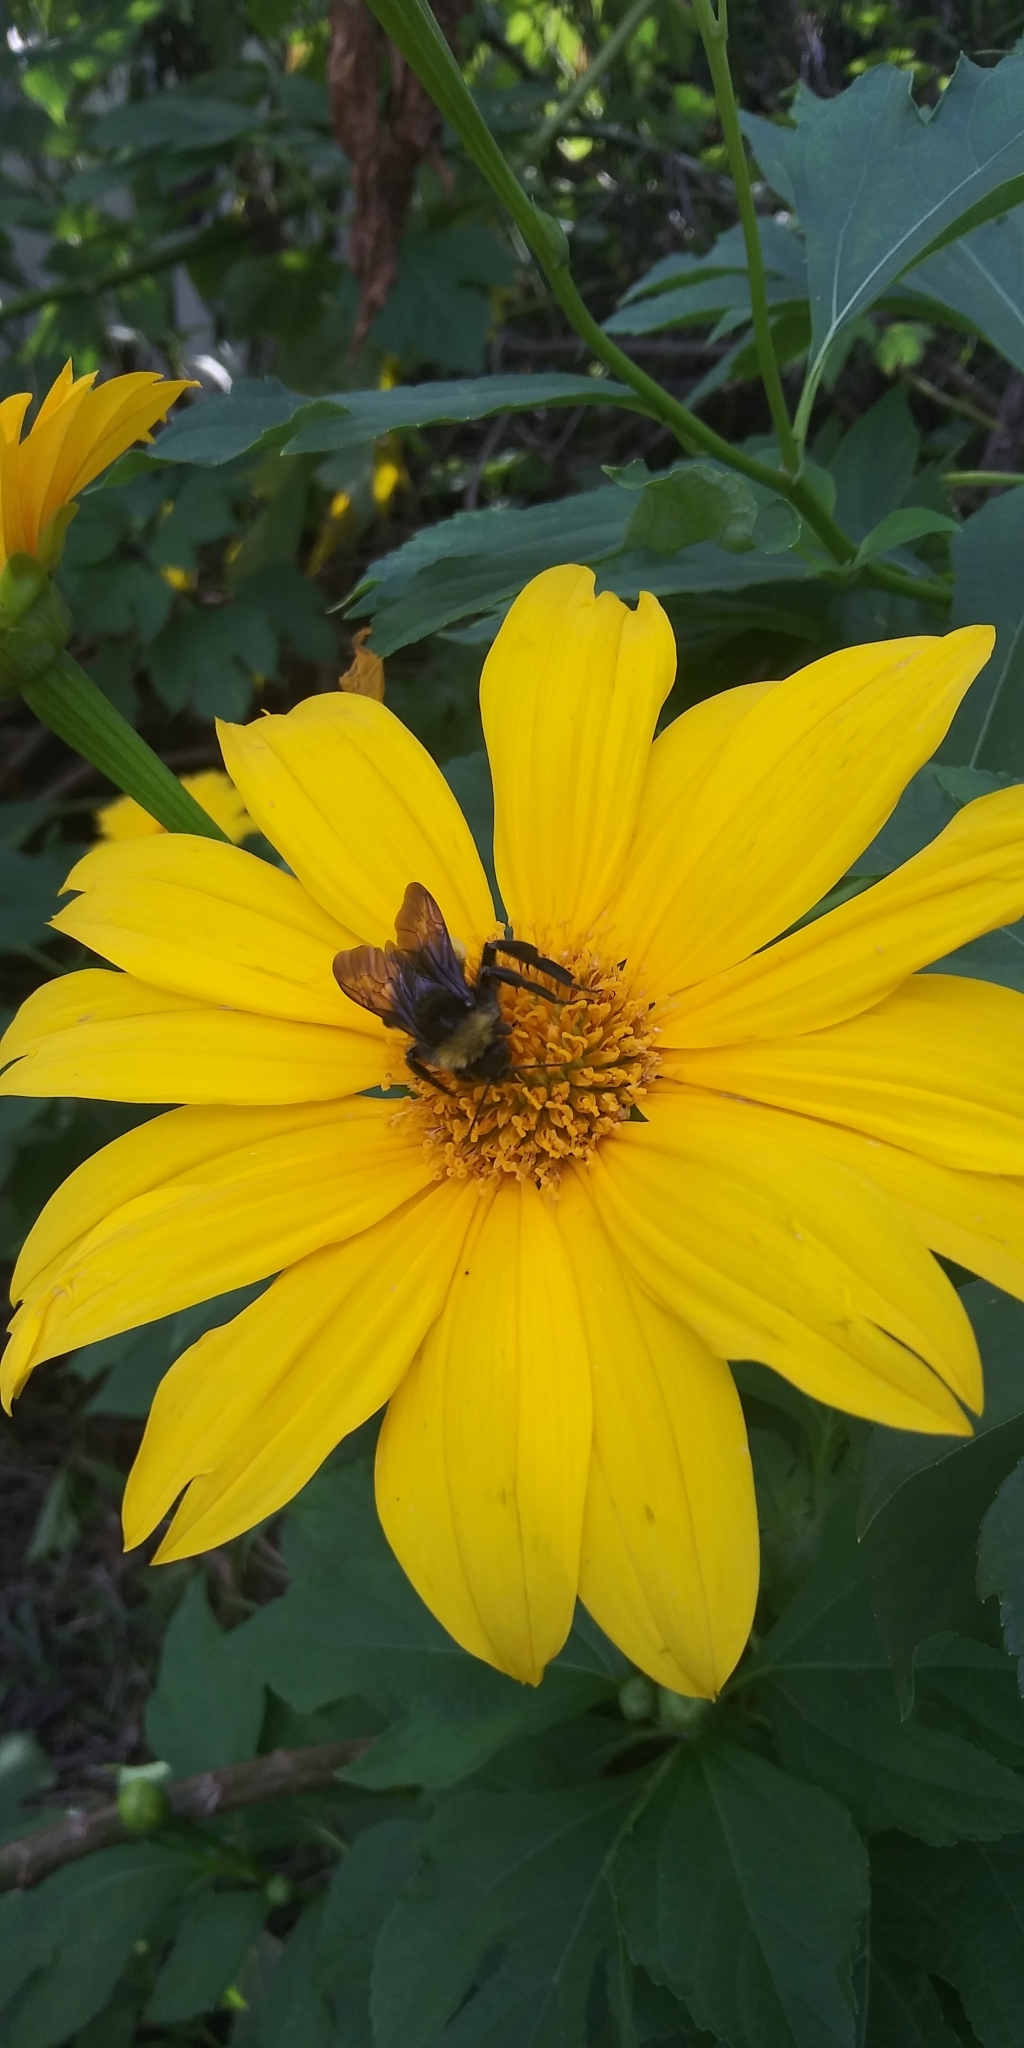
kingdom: Animalia
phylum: Arthropoda
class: Insecta
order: Hymenoptera
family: Apidae
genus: Bombus
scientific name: Bombus pensylvanicus
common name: Bumble bee
